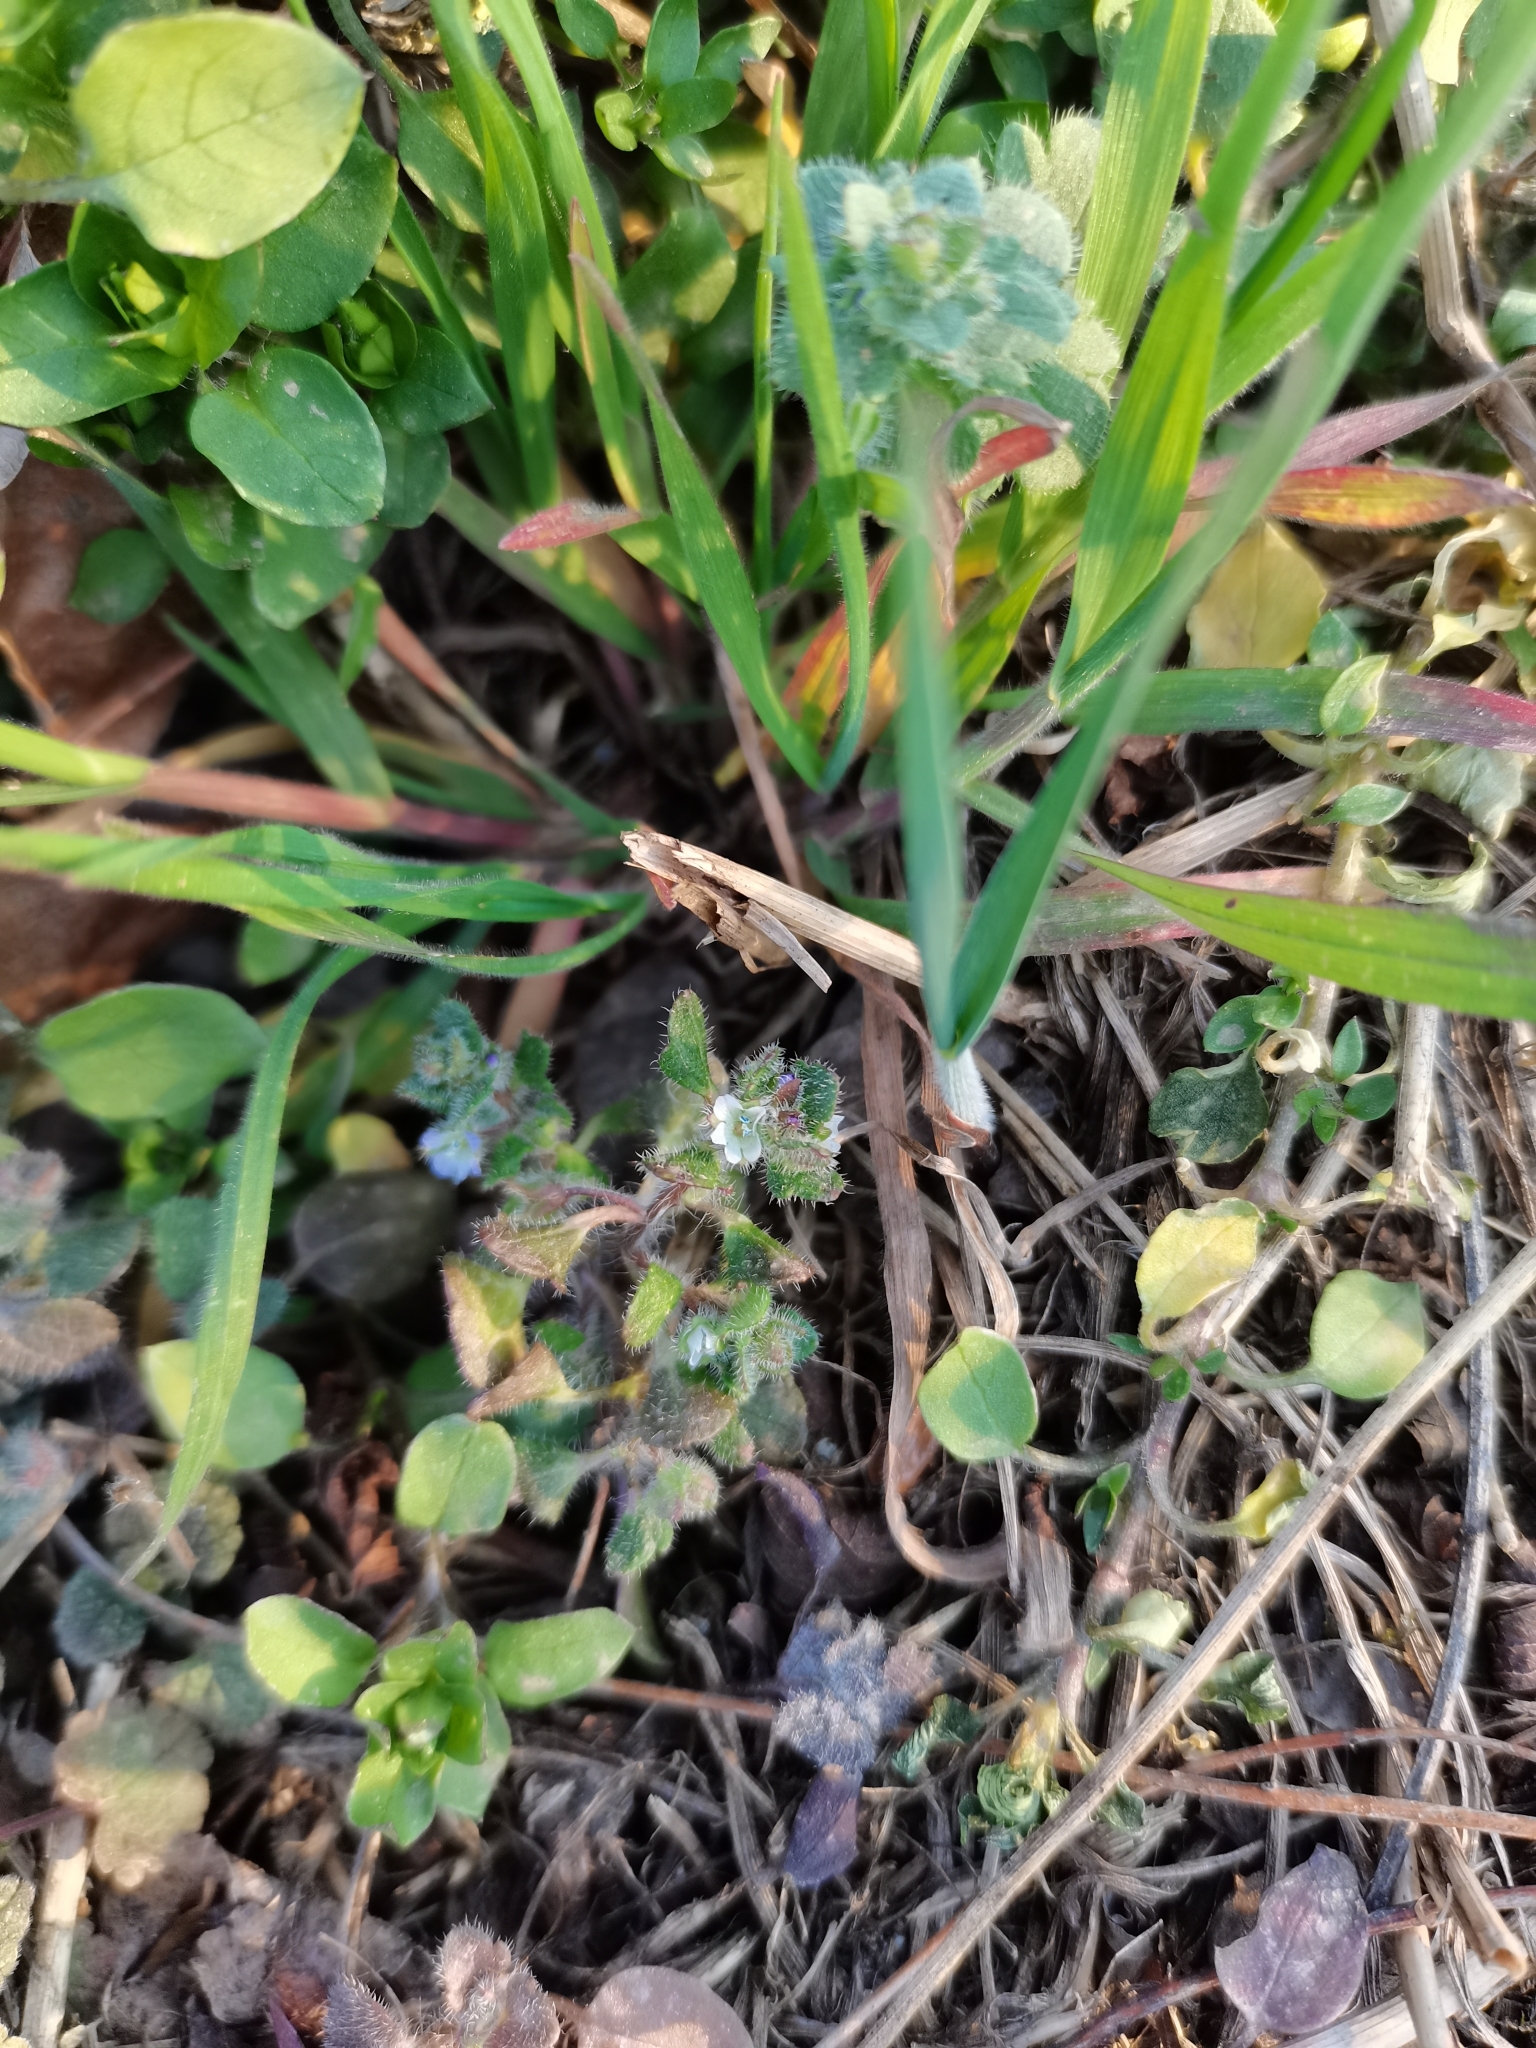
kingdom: Plantae
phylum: Tracheophyta
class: Magnoliopsida
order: Lamiales
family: Plantaginaceae
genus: Veronica
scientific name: Veronica hederifolia
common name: Ivy-leaved speedwell
